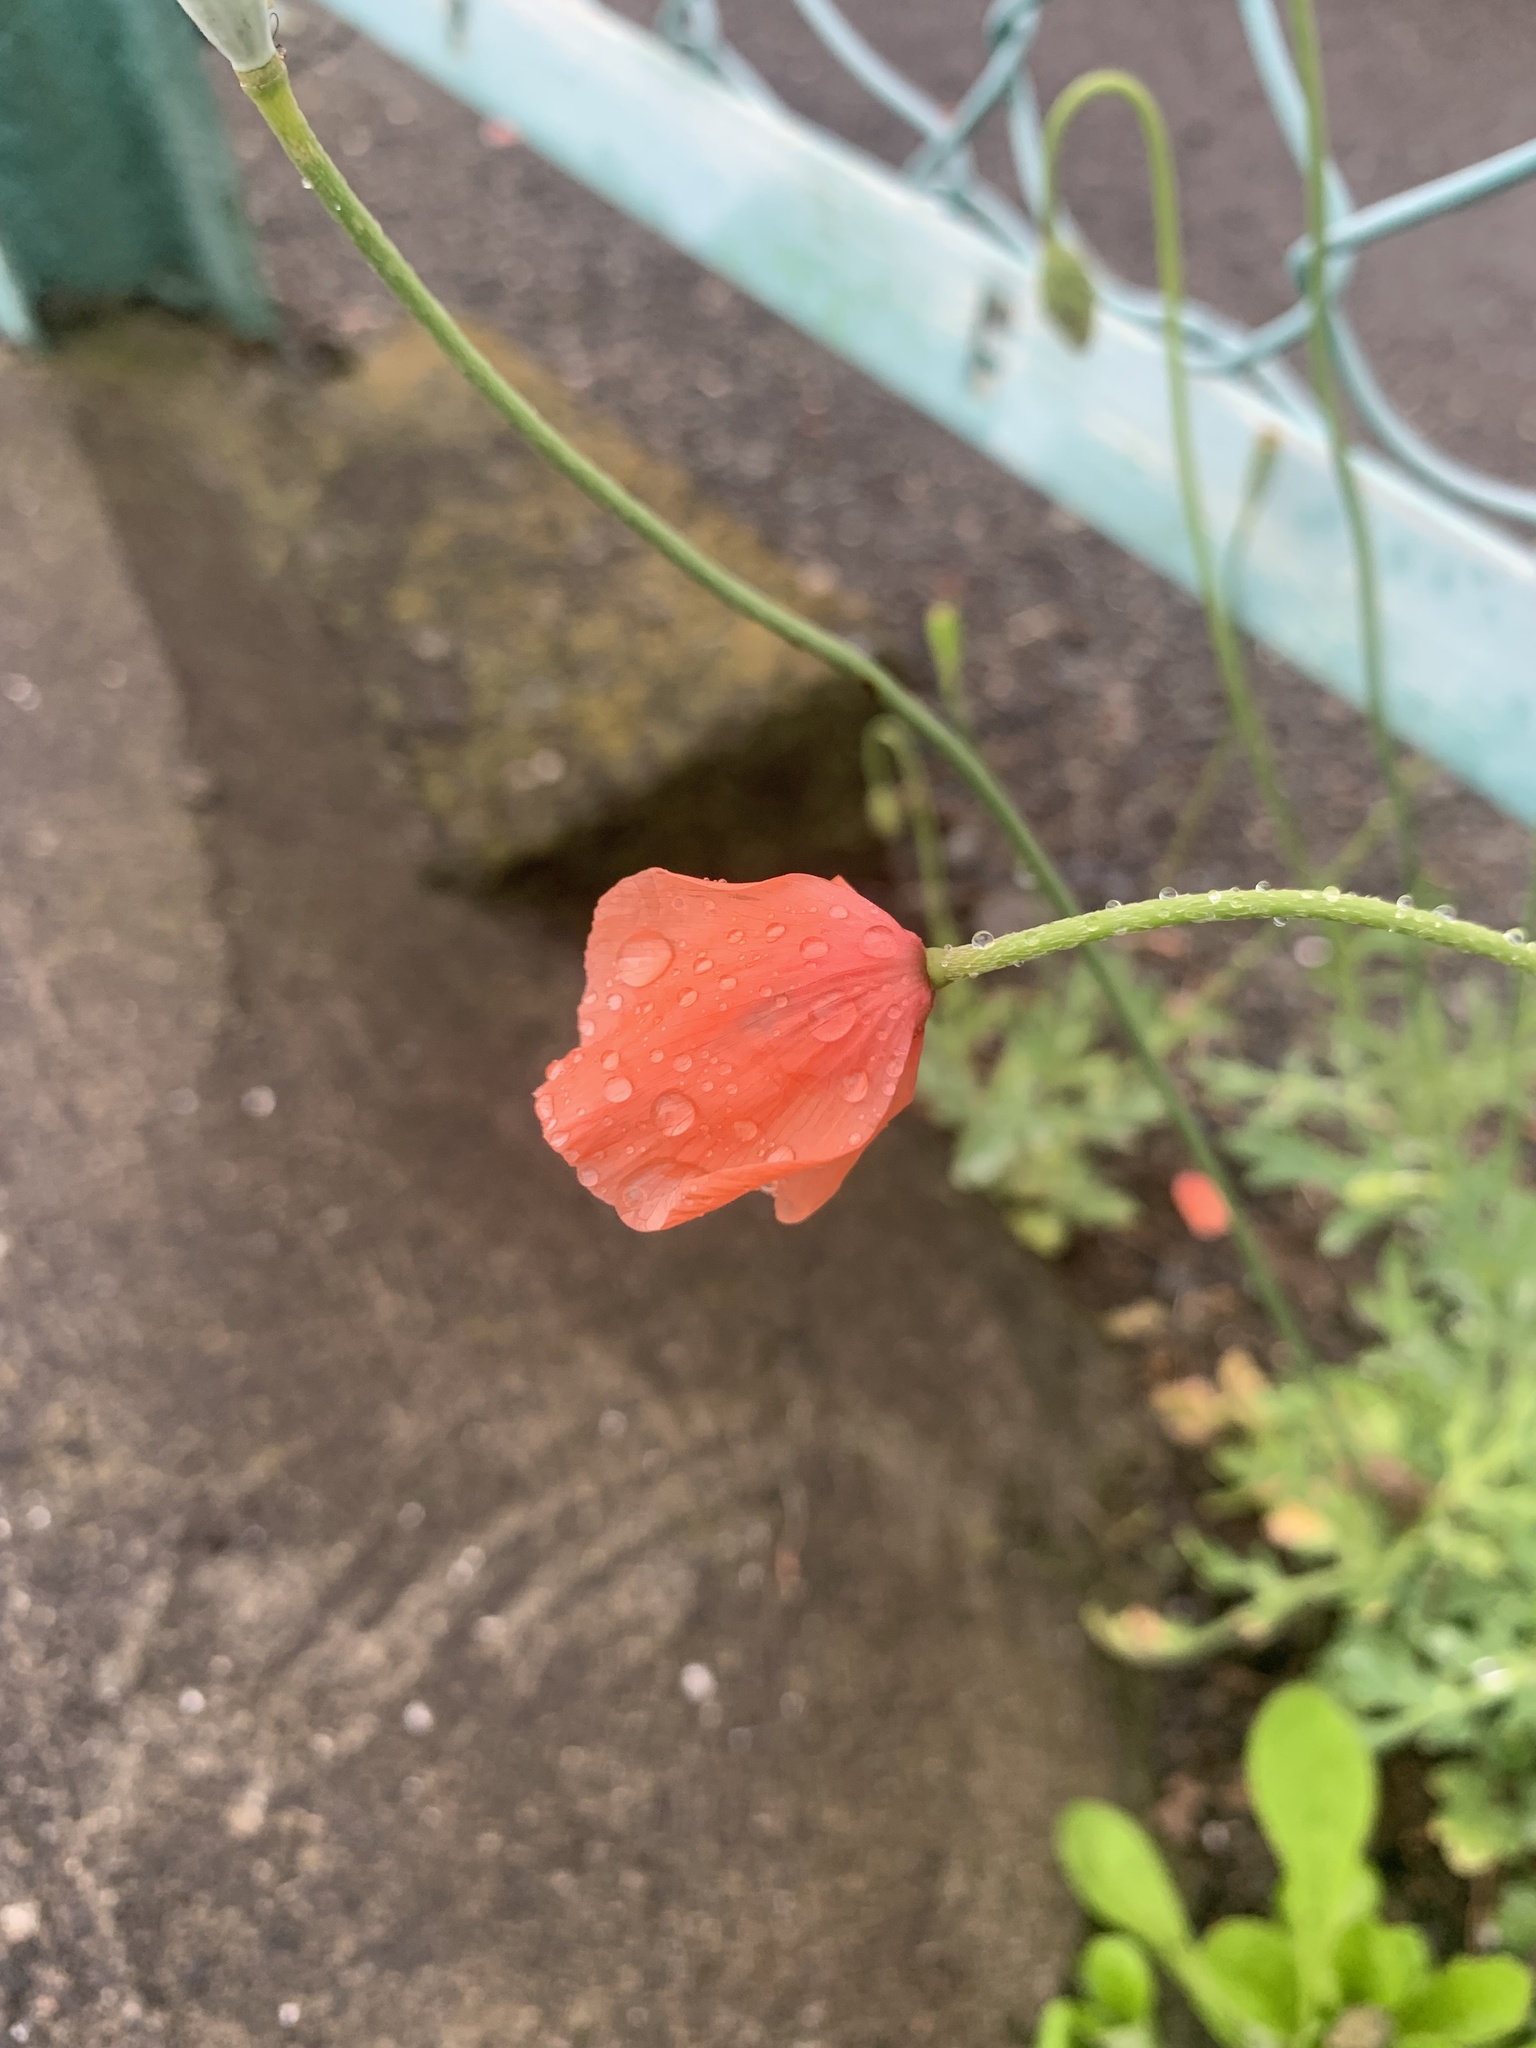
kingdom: Plantae
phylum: Tracheophyta
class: Magnoliopsida
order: Ranunculales
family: Papaveraceae
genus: Papaver
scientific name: Papaver dubium
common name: Long-headed poppy
